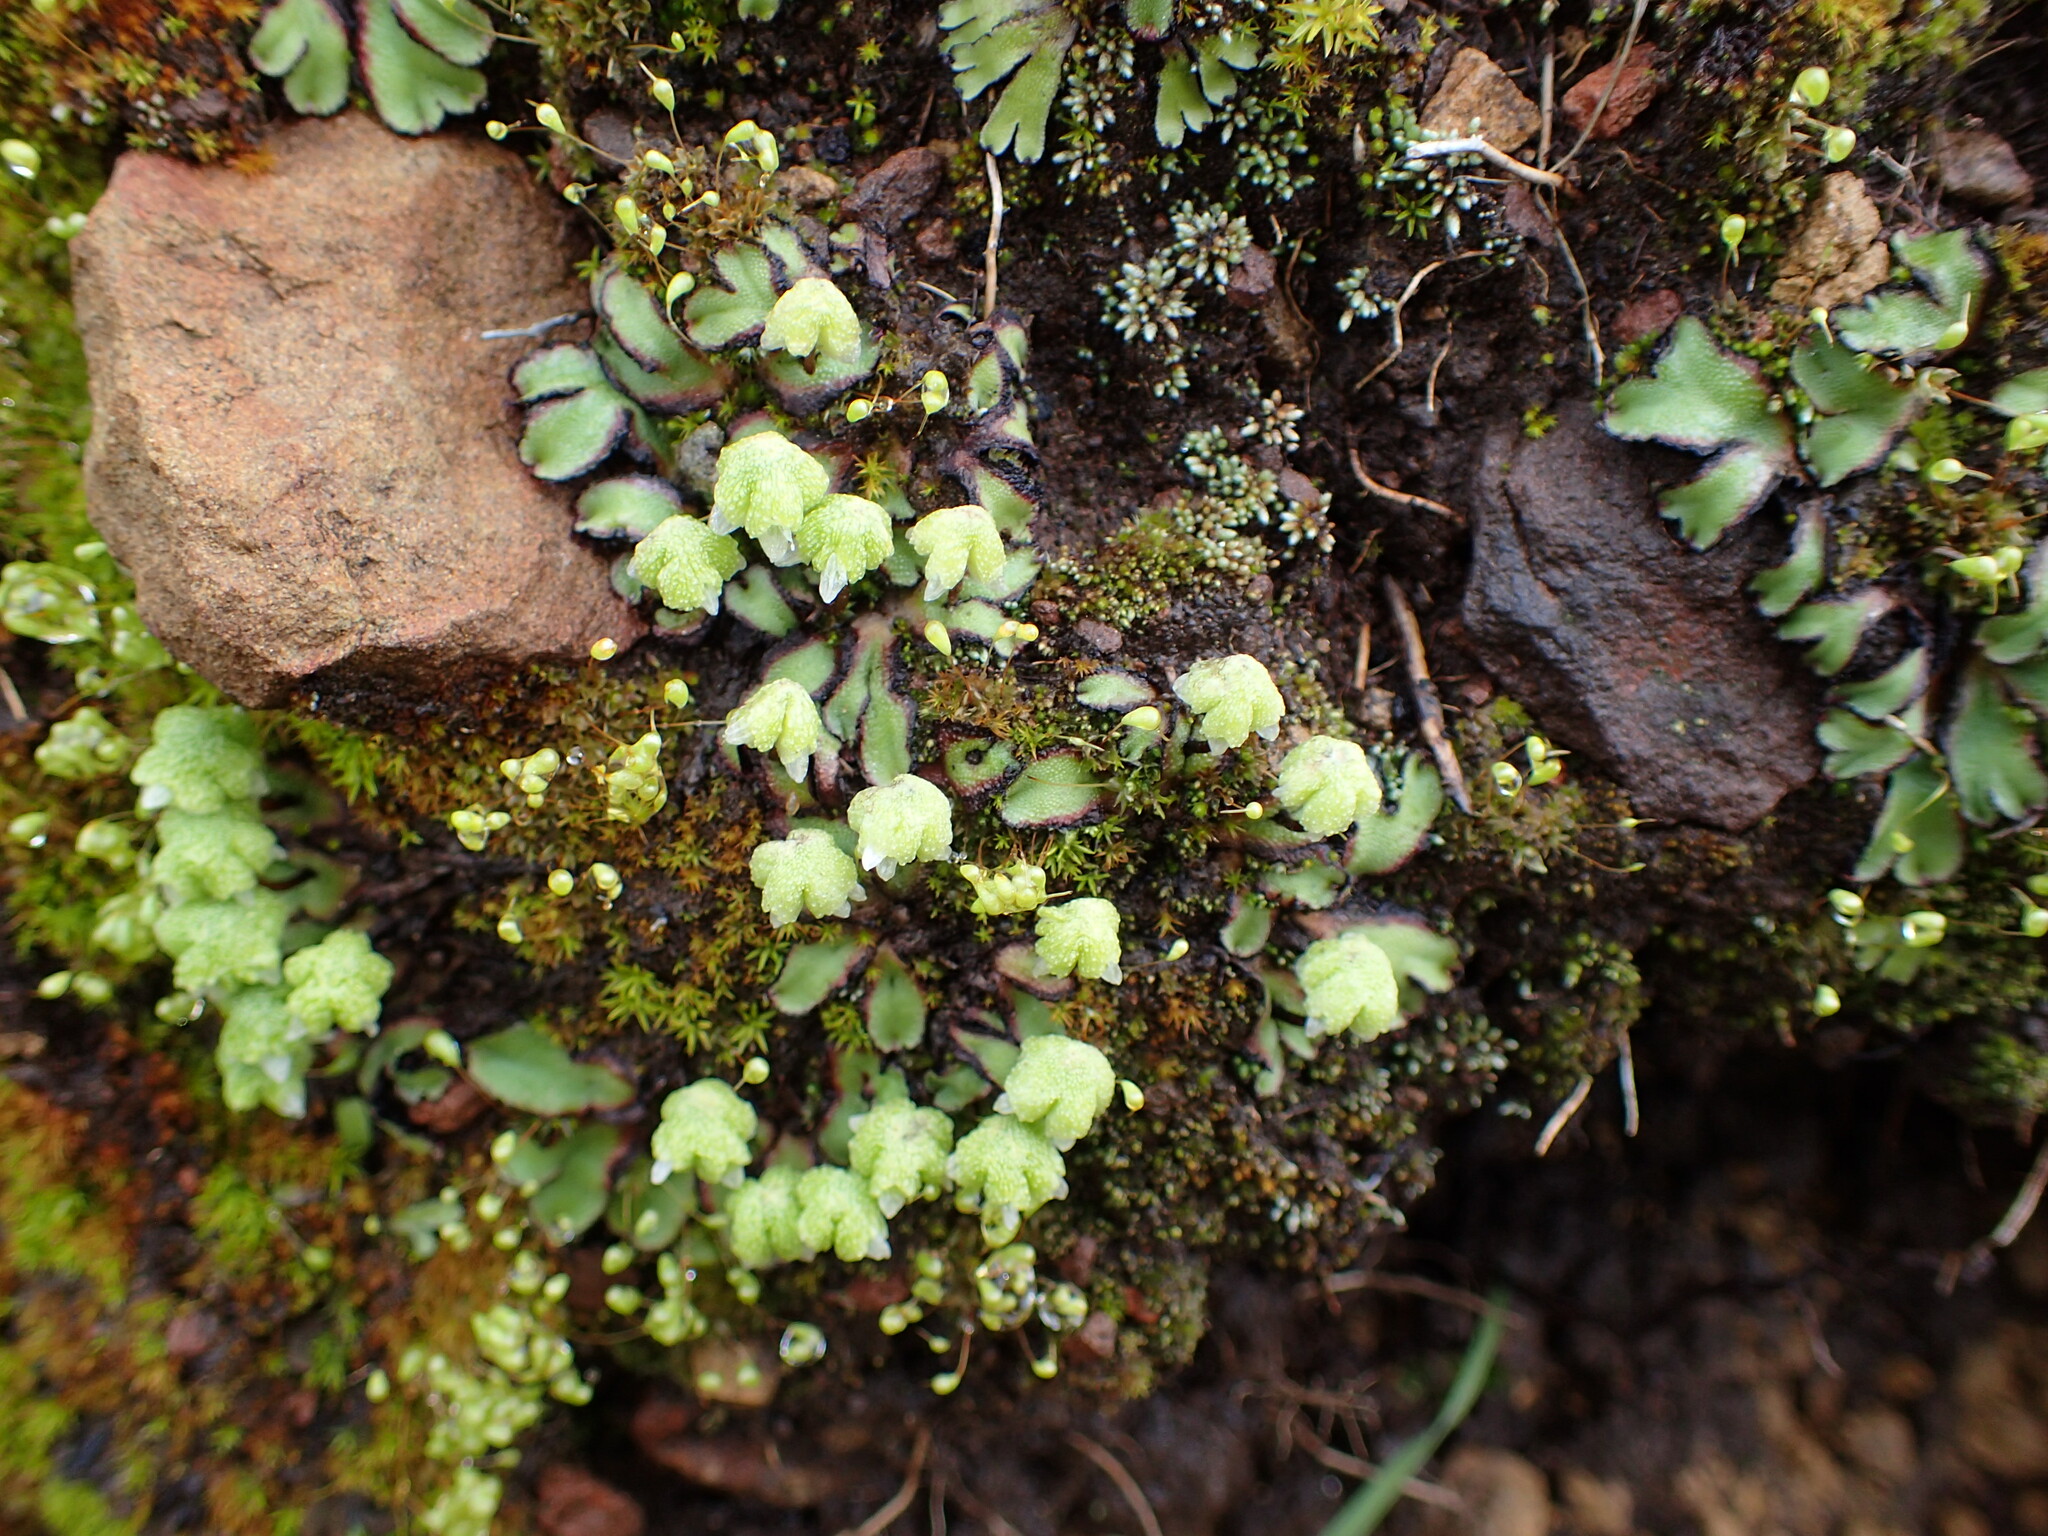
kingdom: Plantae
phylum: Marchantiophyta
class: Marchantiopsida
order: Marchantiales
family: Aytoniaceae
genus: Asterella
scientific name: Asterella californica
